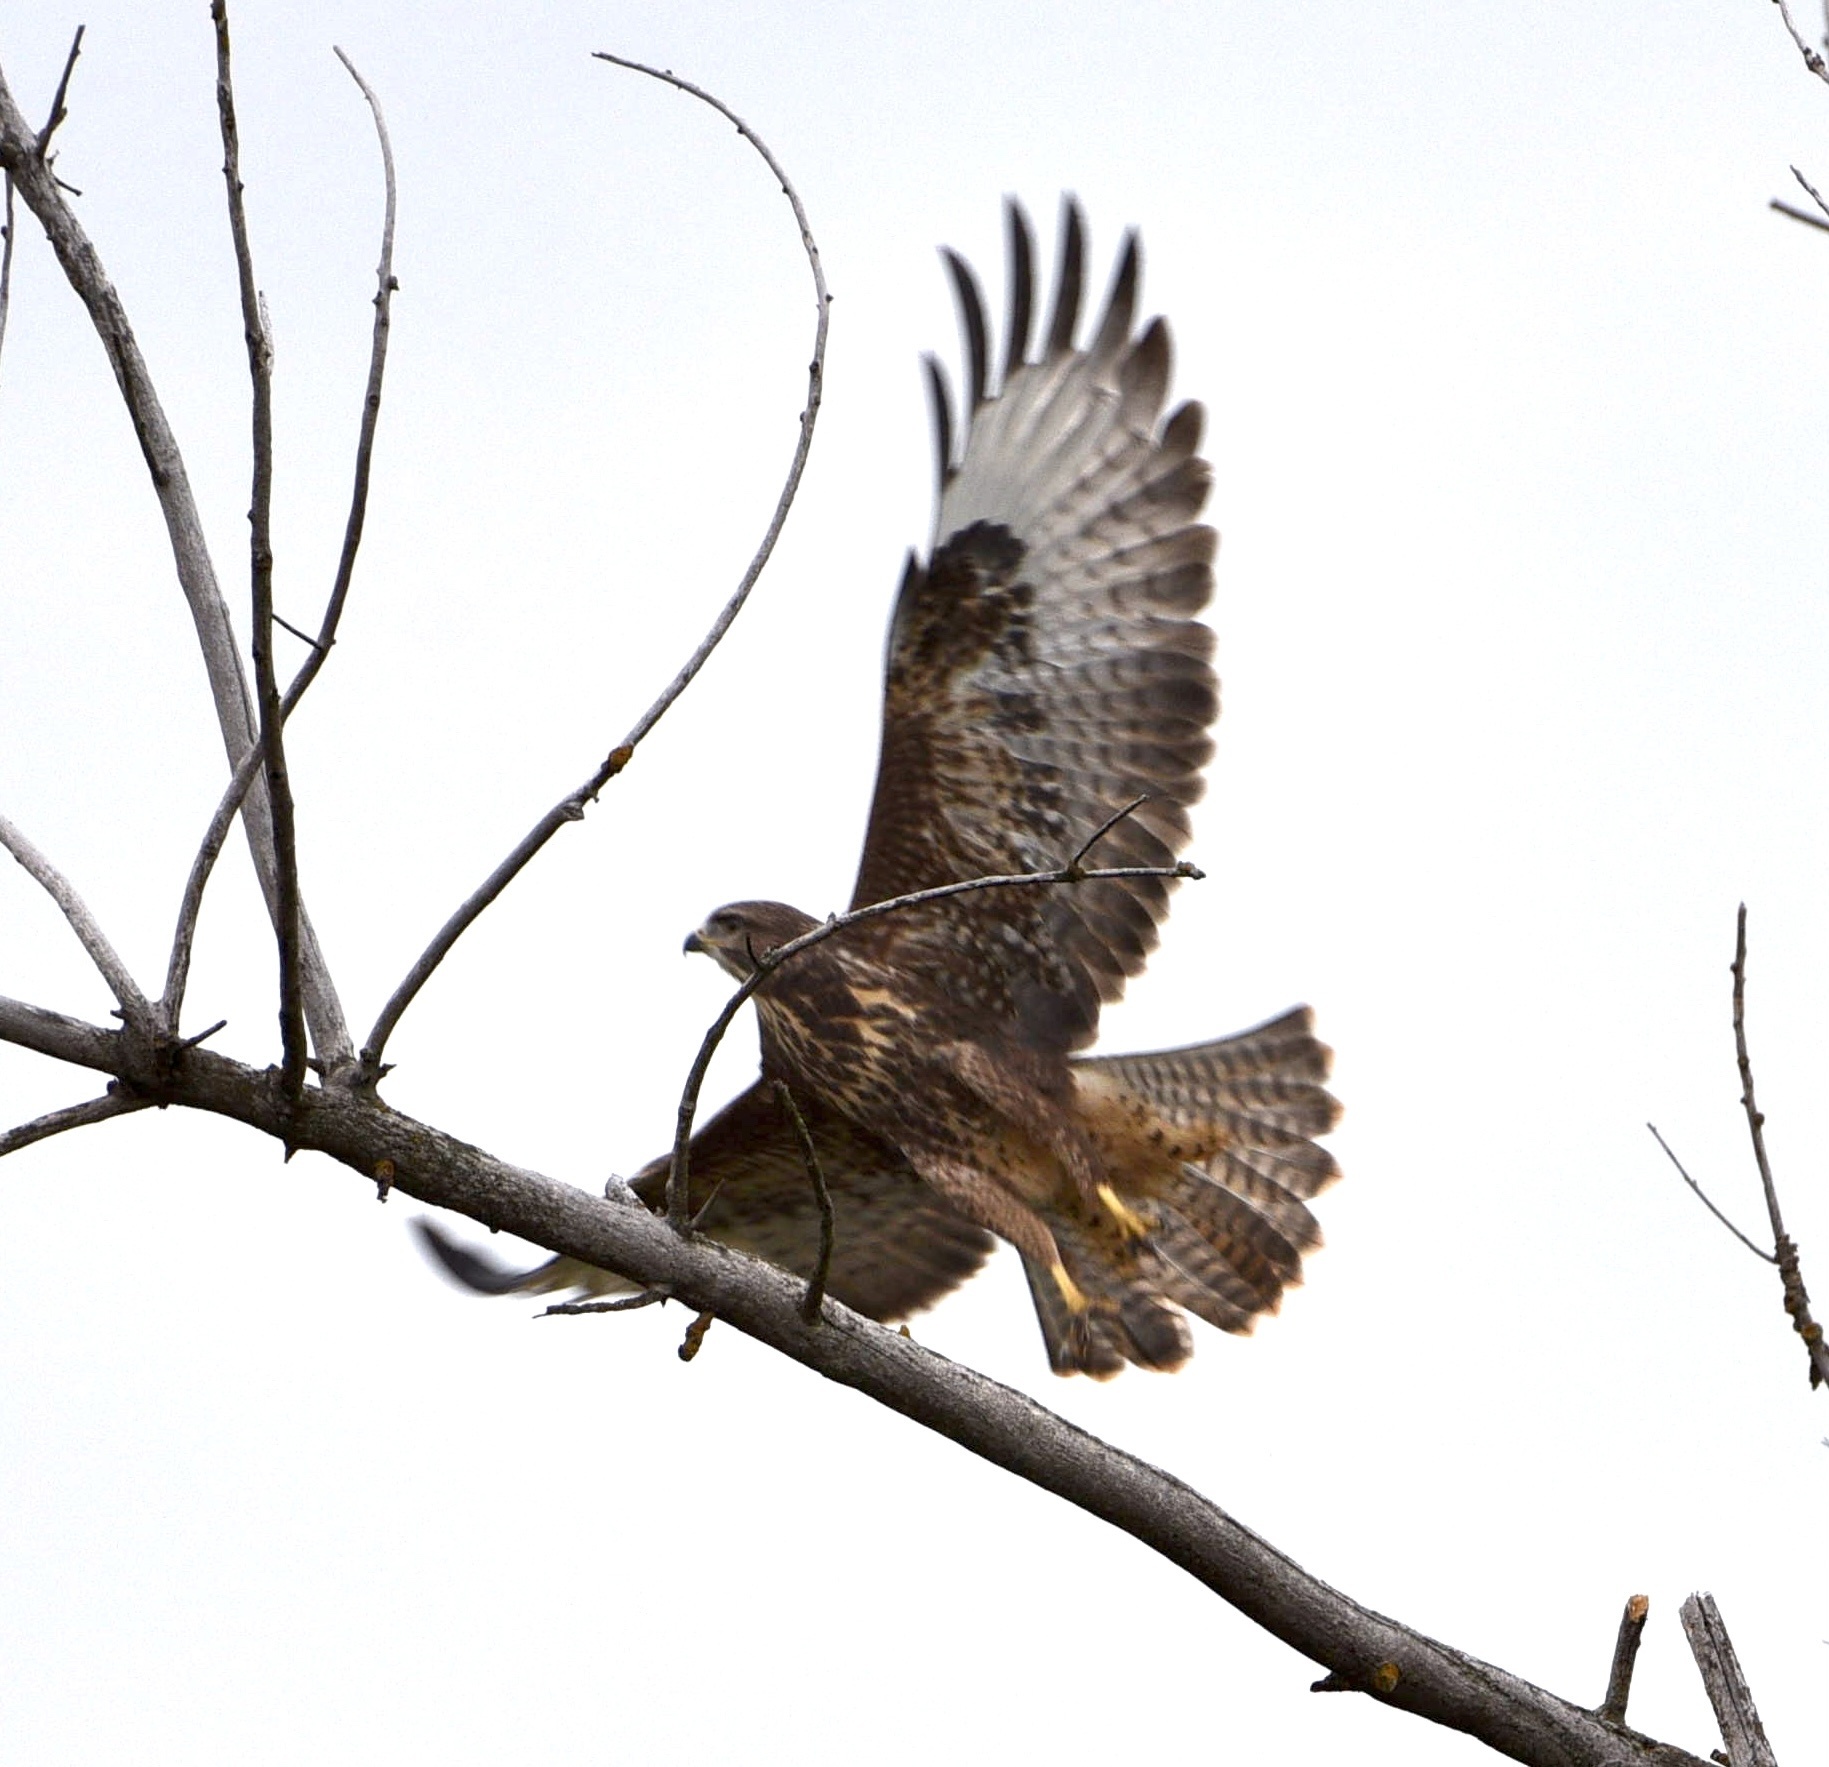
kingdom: Animalia
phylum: Chordata
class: Aves
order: Accipitriformes
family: Accipitridae
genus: Buteo
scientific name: Buteo buteo
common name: Common buzzard
